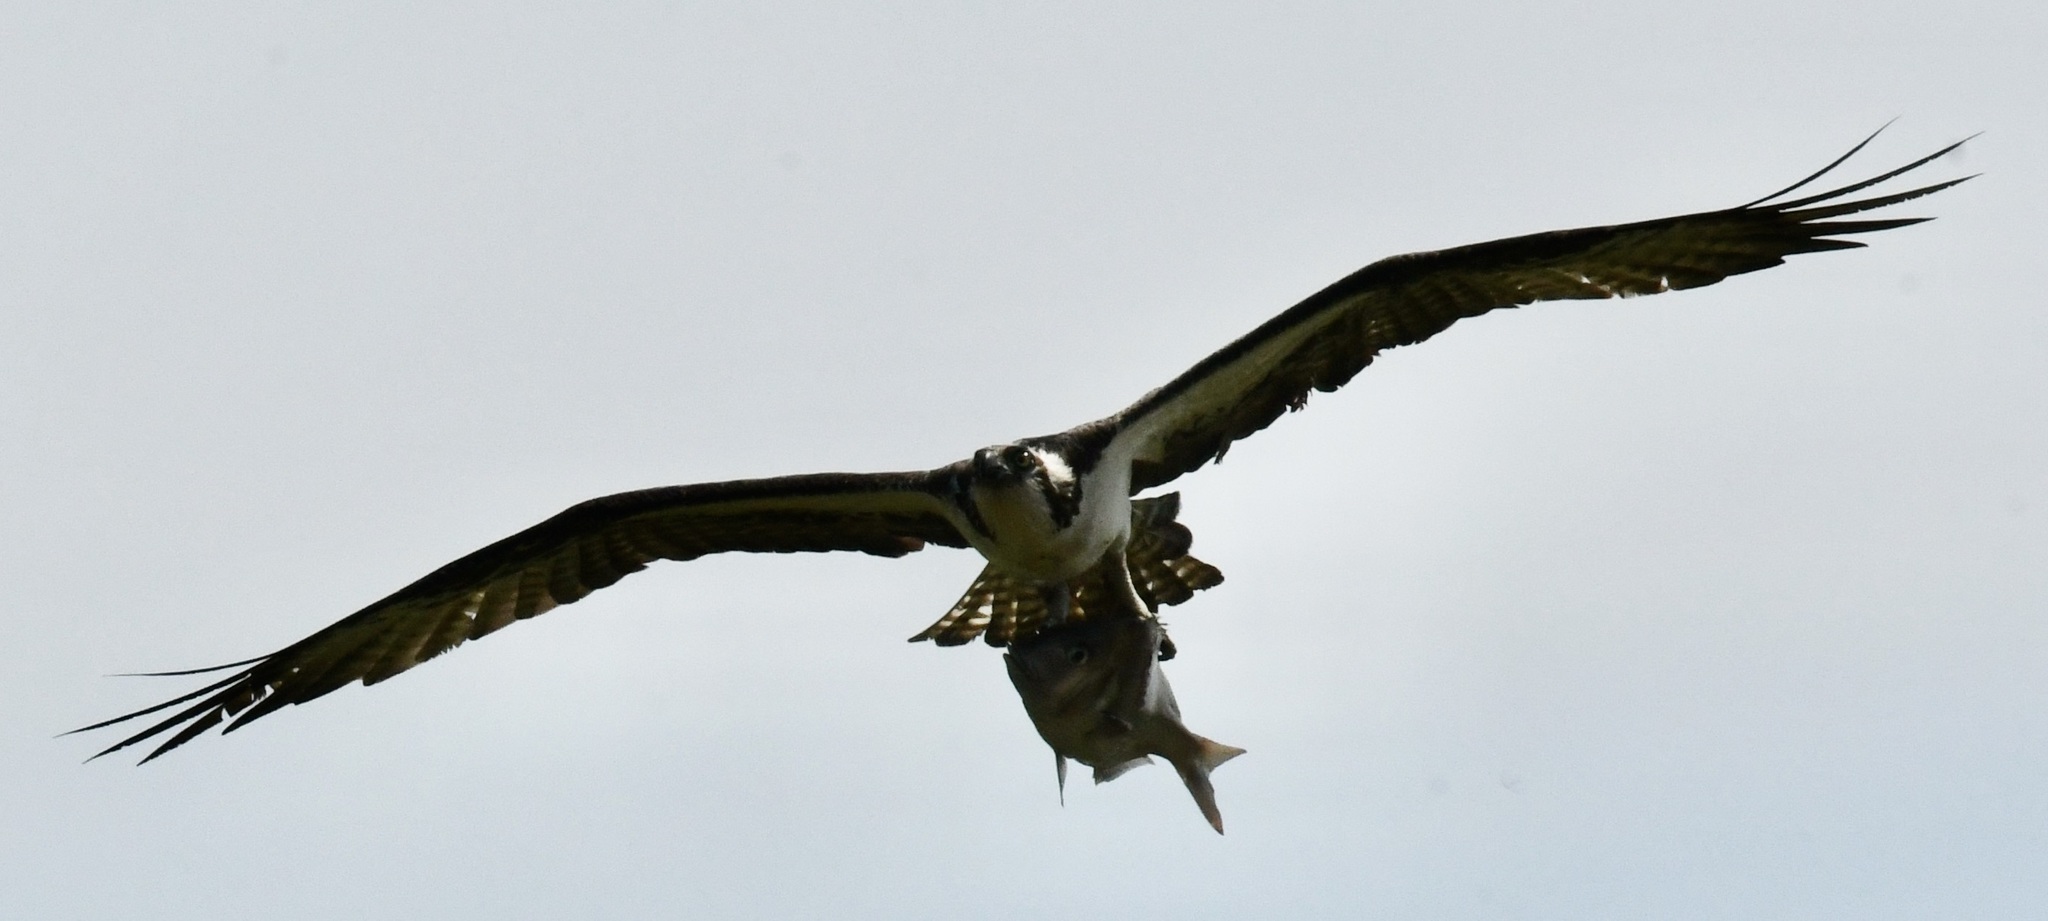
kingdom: Animalia
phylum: Chordata
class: Aves
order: Accipitriformes
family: Pandionidae
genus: Pandion
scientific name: Pandion haliaetus
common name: Osprey
